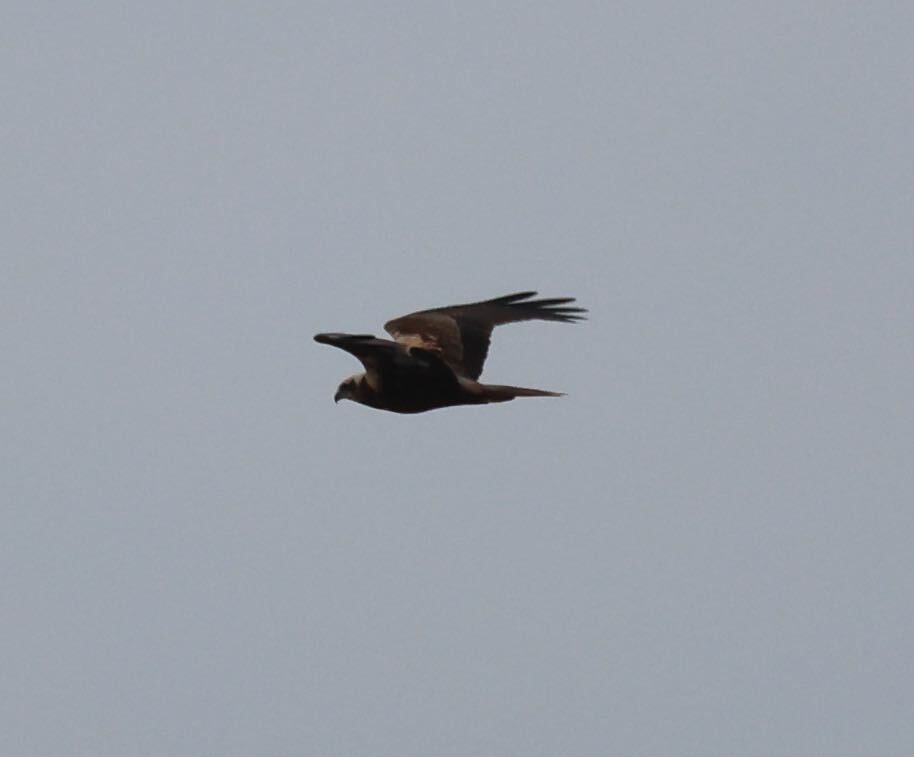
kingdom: Animalia
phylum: Chordata
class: Aves
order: Accipitriformes
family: Accipitridae
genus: Circus
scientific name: Circus aeruginosus
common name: Western marsh harrier
